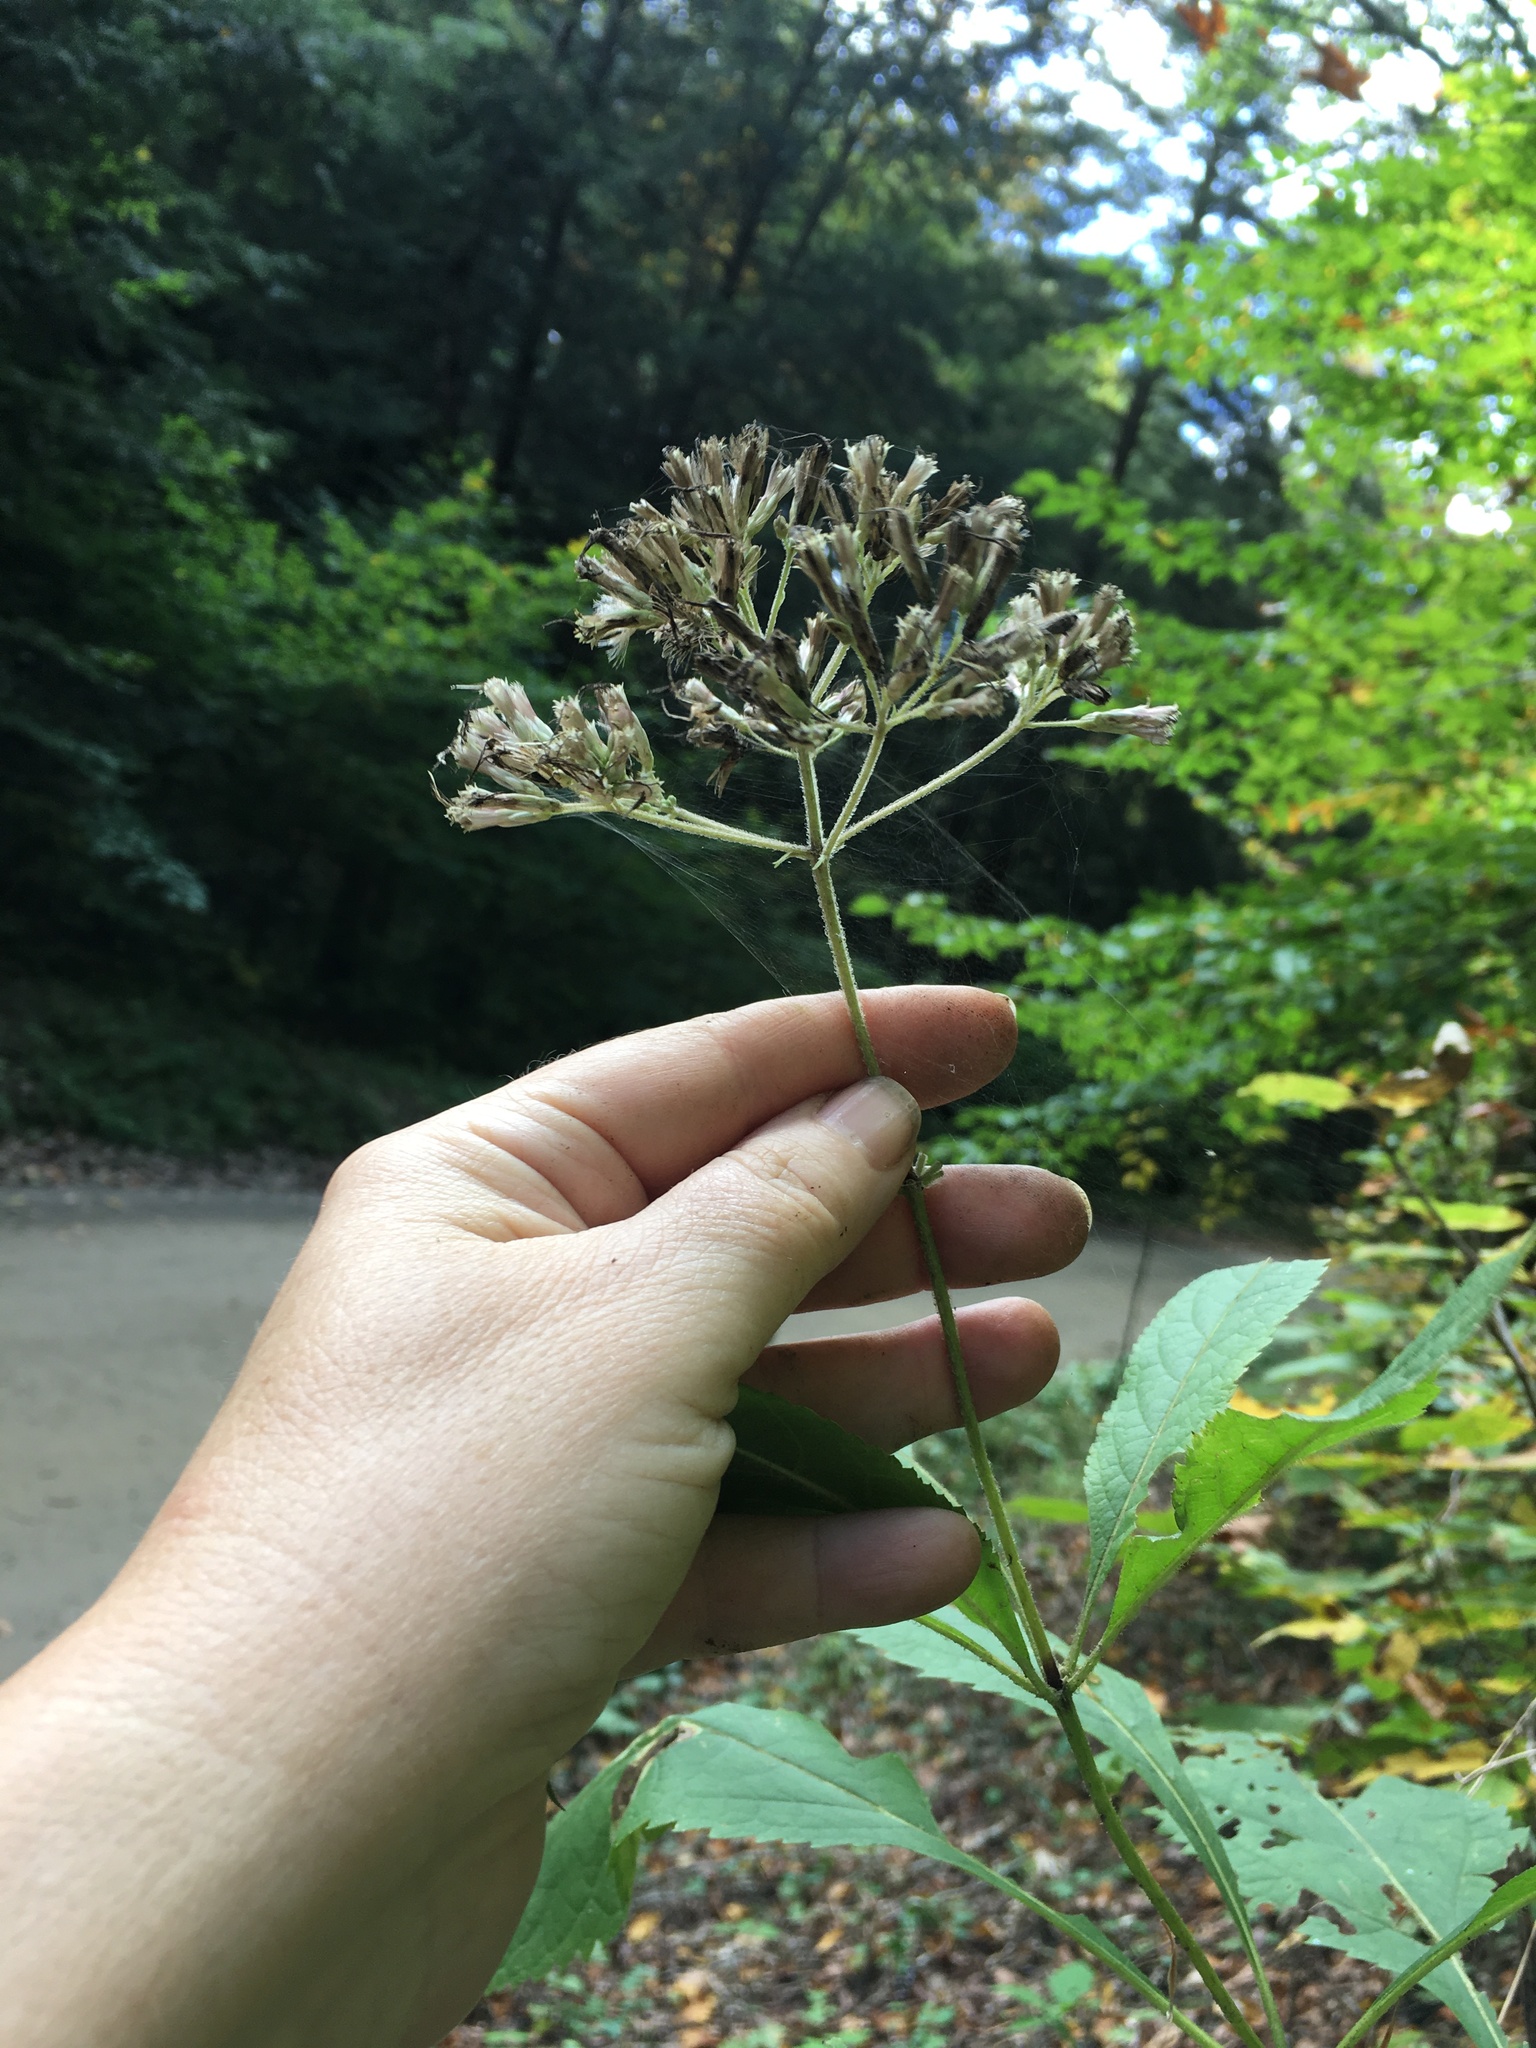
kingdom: Plantae
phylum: Tracheophyta
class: Magnoliopsida
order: Asterales
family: Asteraceae
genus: Eutrochium
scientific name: Eutrochium purpureum
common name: Gravelroot
